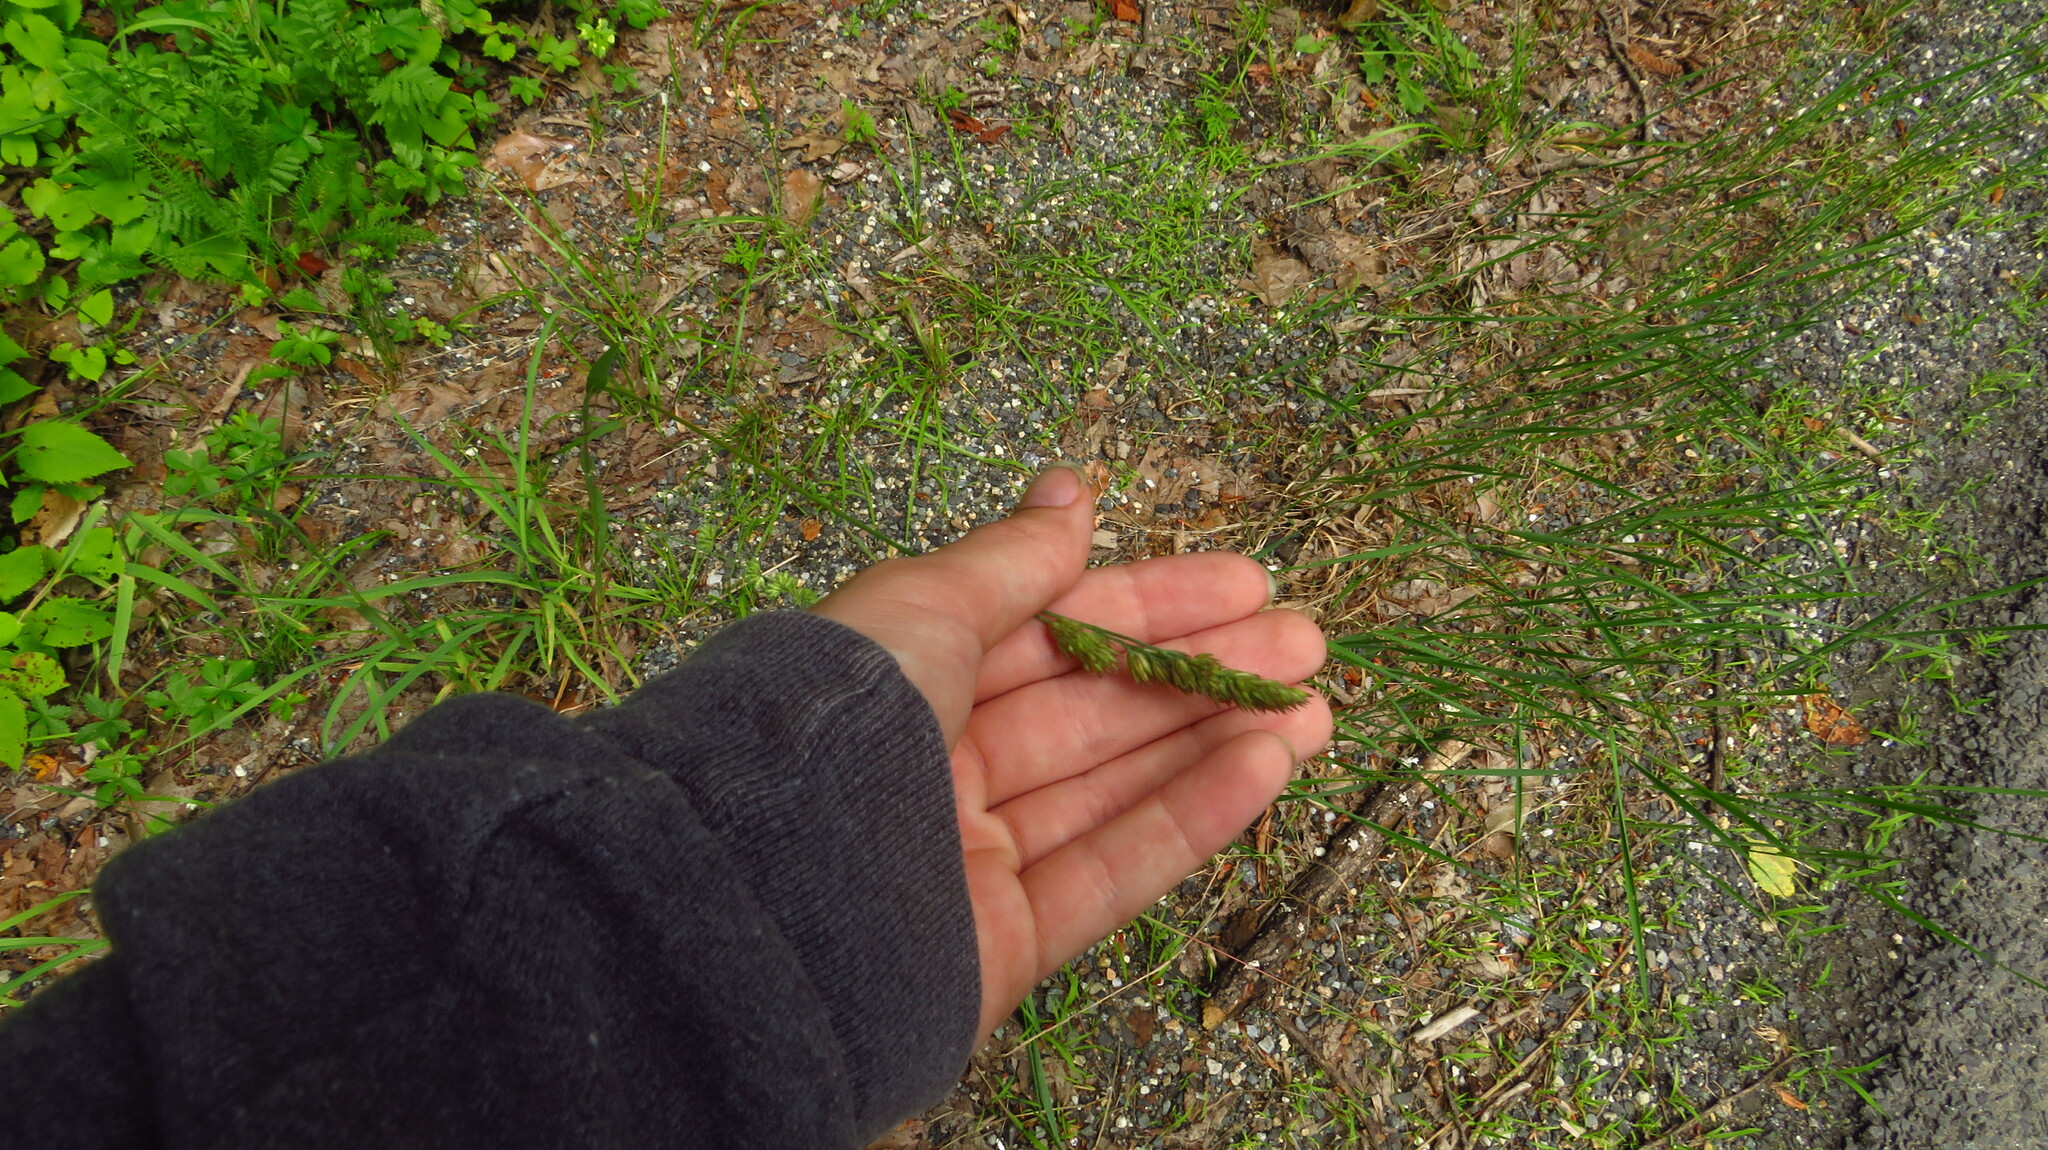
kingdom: Plantae
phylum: Tracheophyta
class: Liliopsida
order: Poales
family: Poaceae
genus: Dactylis
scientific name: Dactylis glomerata
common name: Orchardgrass
